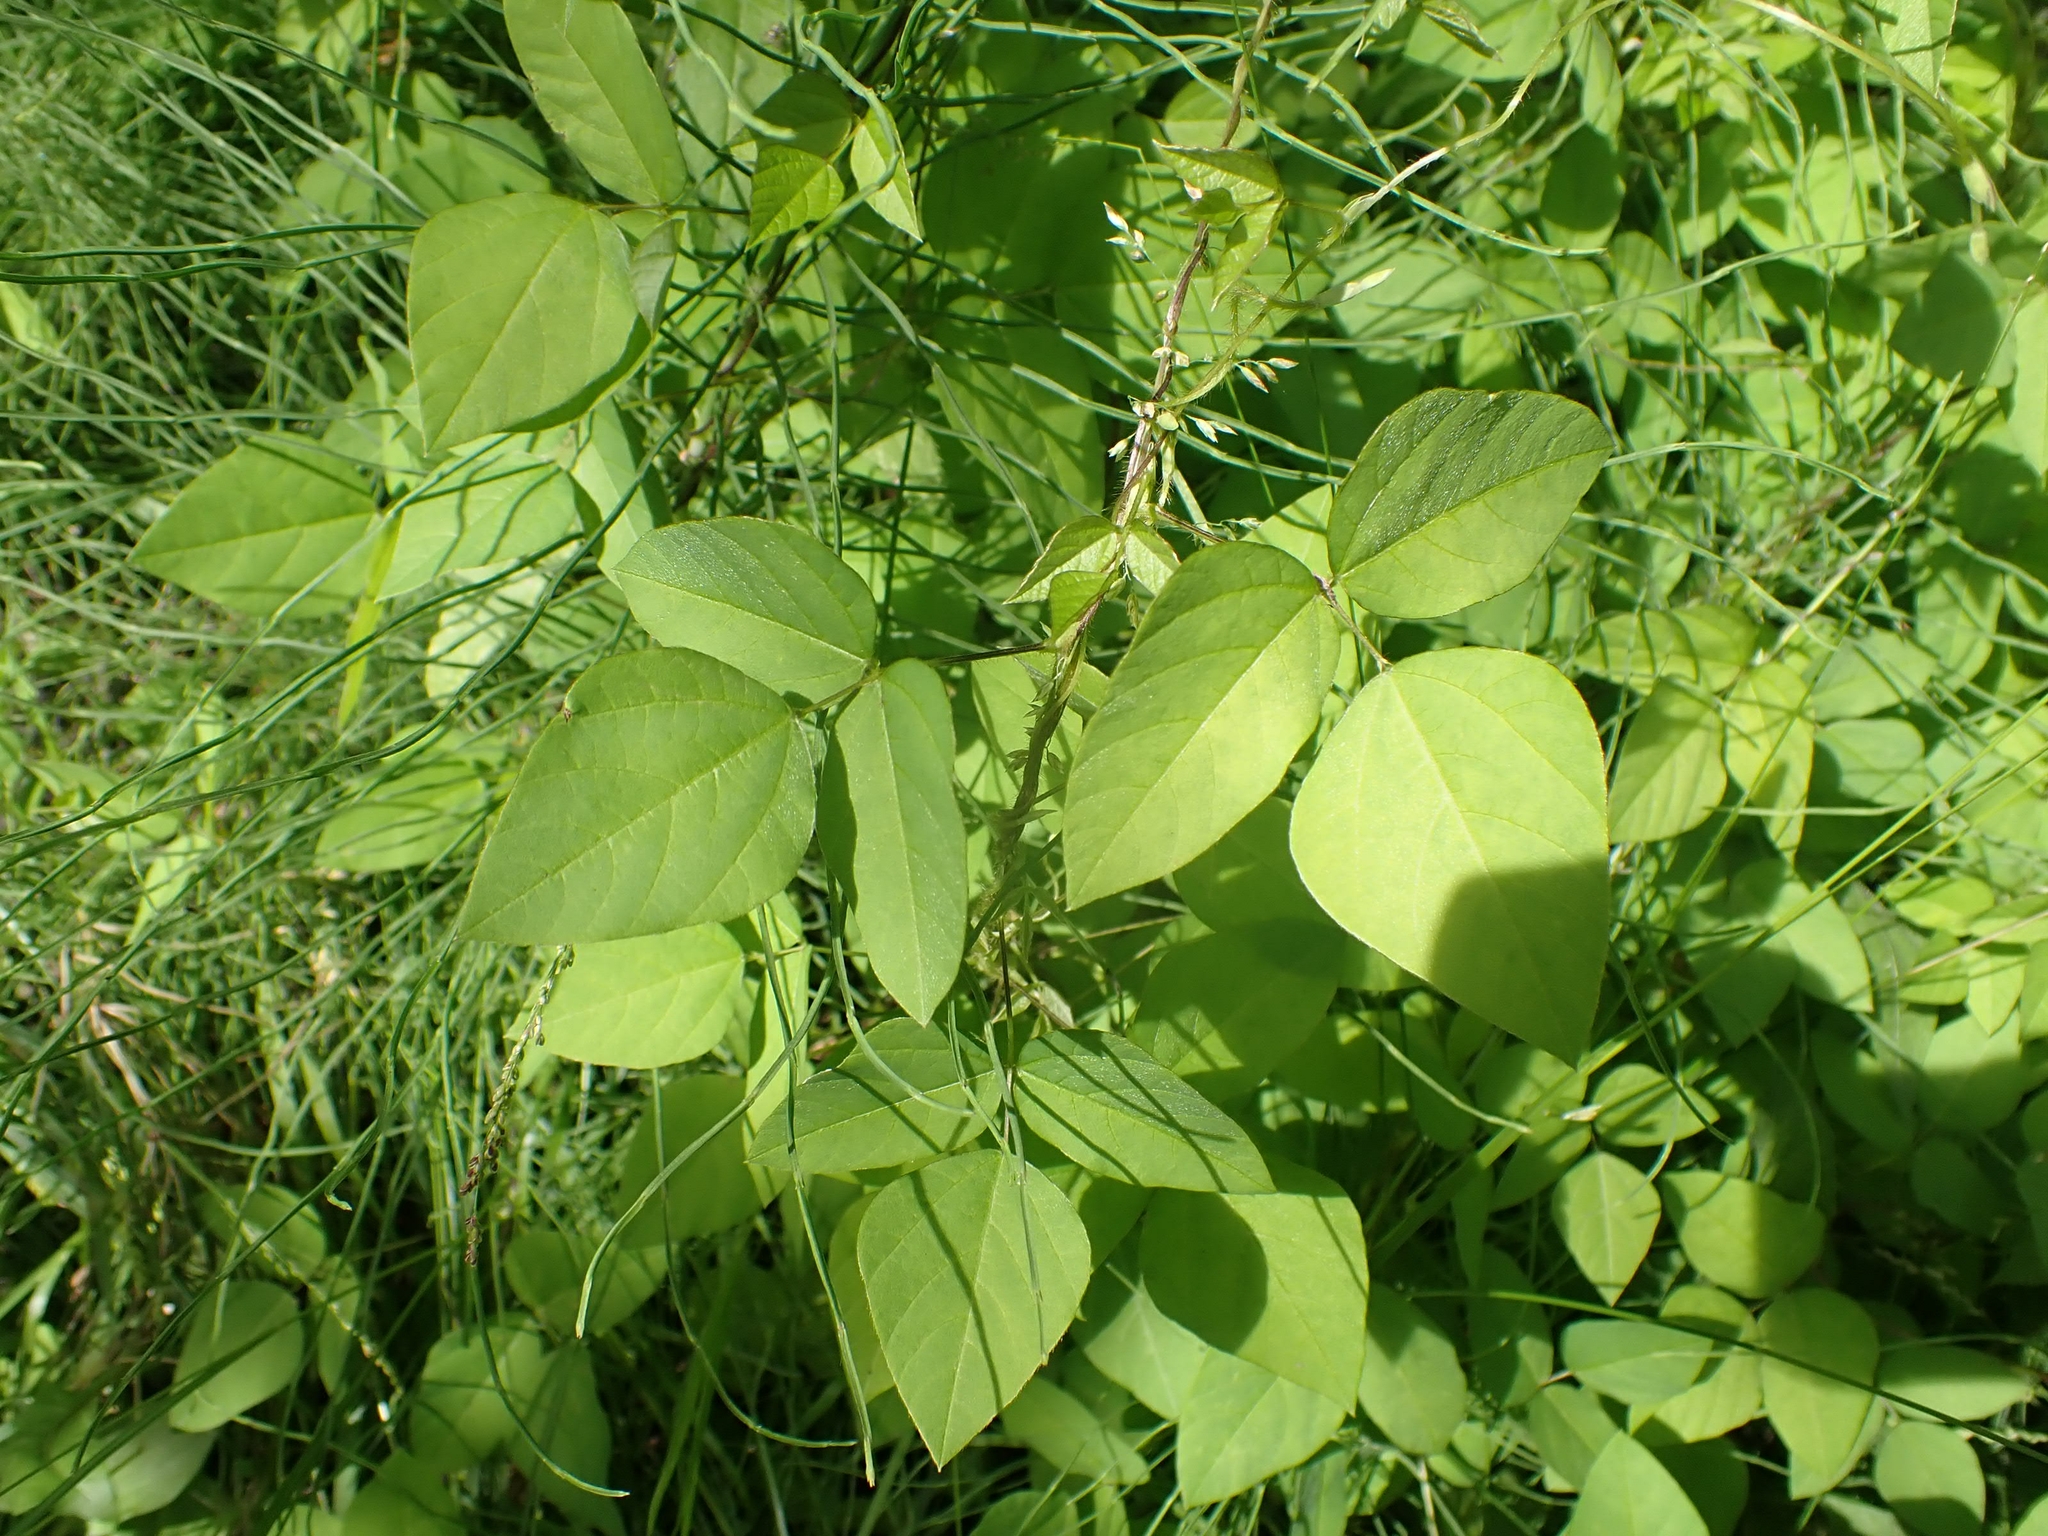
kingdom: Plantae
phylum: Tracheophyta
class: Magnoliopsida
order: Fabales
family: Fabaceae
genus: Amphicarpaea
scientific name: Amphicarpaea bracteata
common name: American hog peanut
